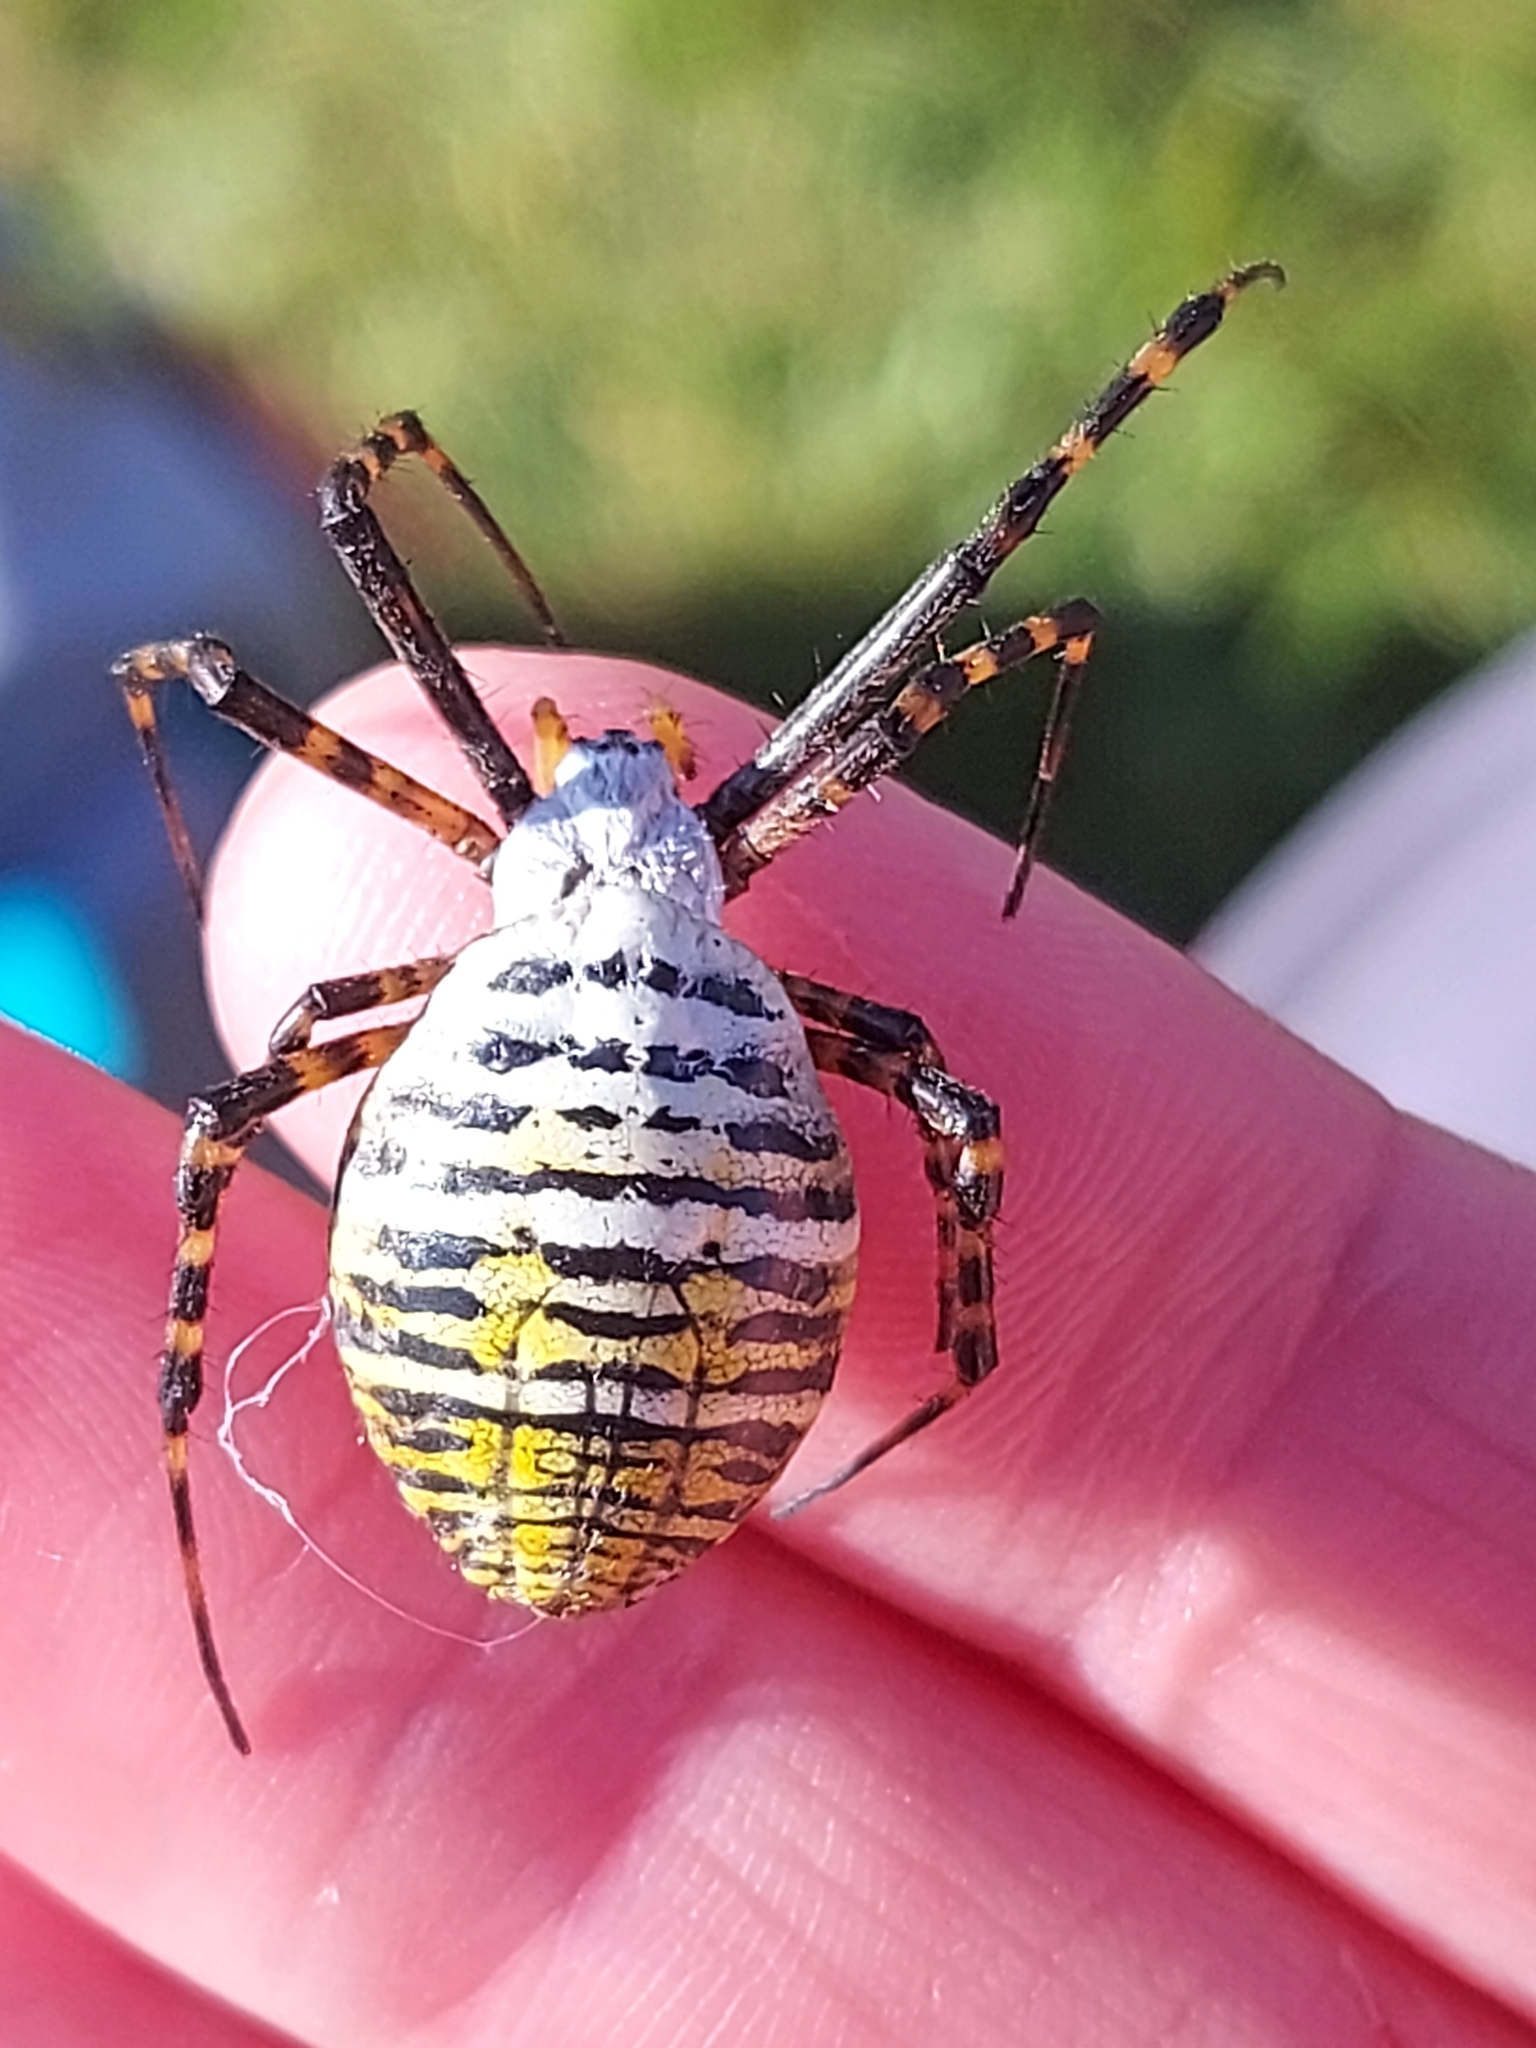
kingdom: Animalia
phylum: Arthropoda
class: Arachnida
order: Araneae
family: Araneidae
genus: Argiope
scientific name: Argiope trifasciata
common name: Banded garden spider
